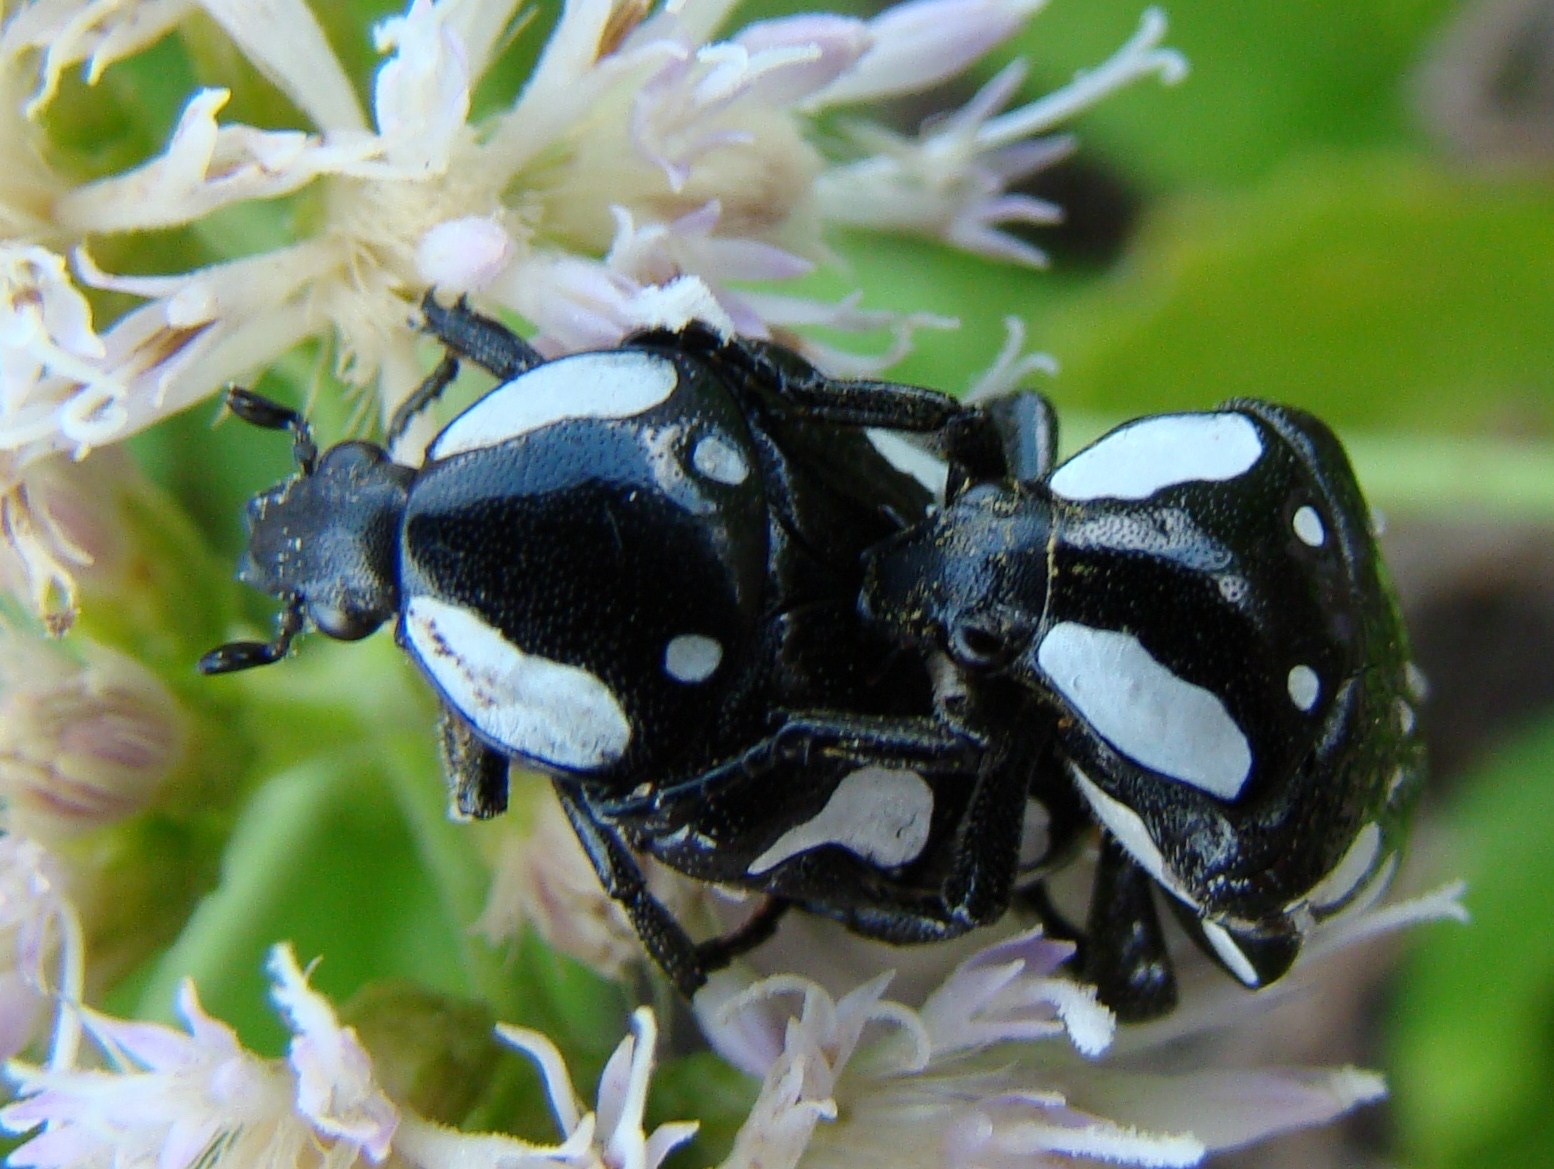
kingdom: Animalia
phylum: Arthropoda
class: Insecta
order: Coleoptera
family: Scarabaeidae
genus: Mausoleopsis
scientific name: Mausoleopsis amabilis
